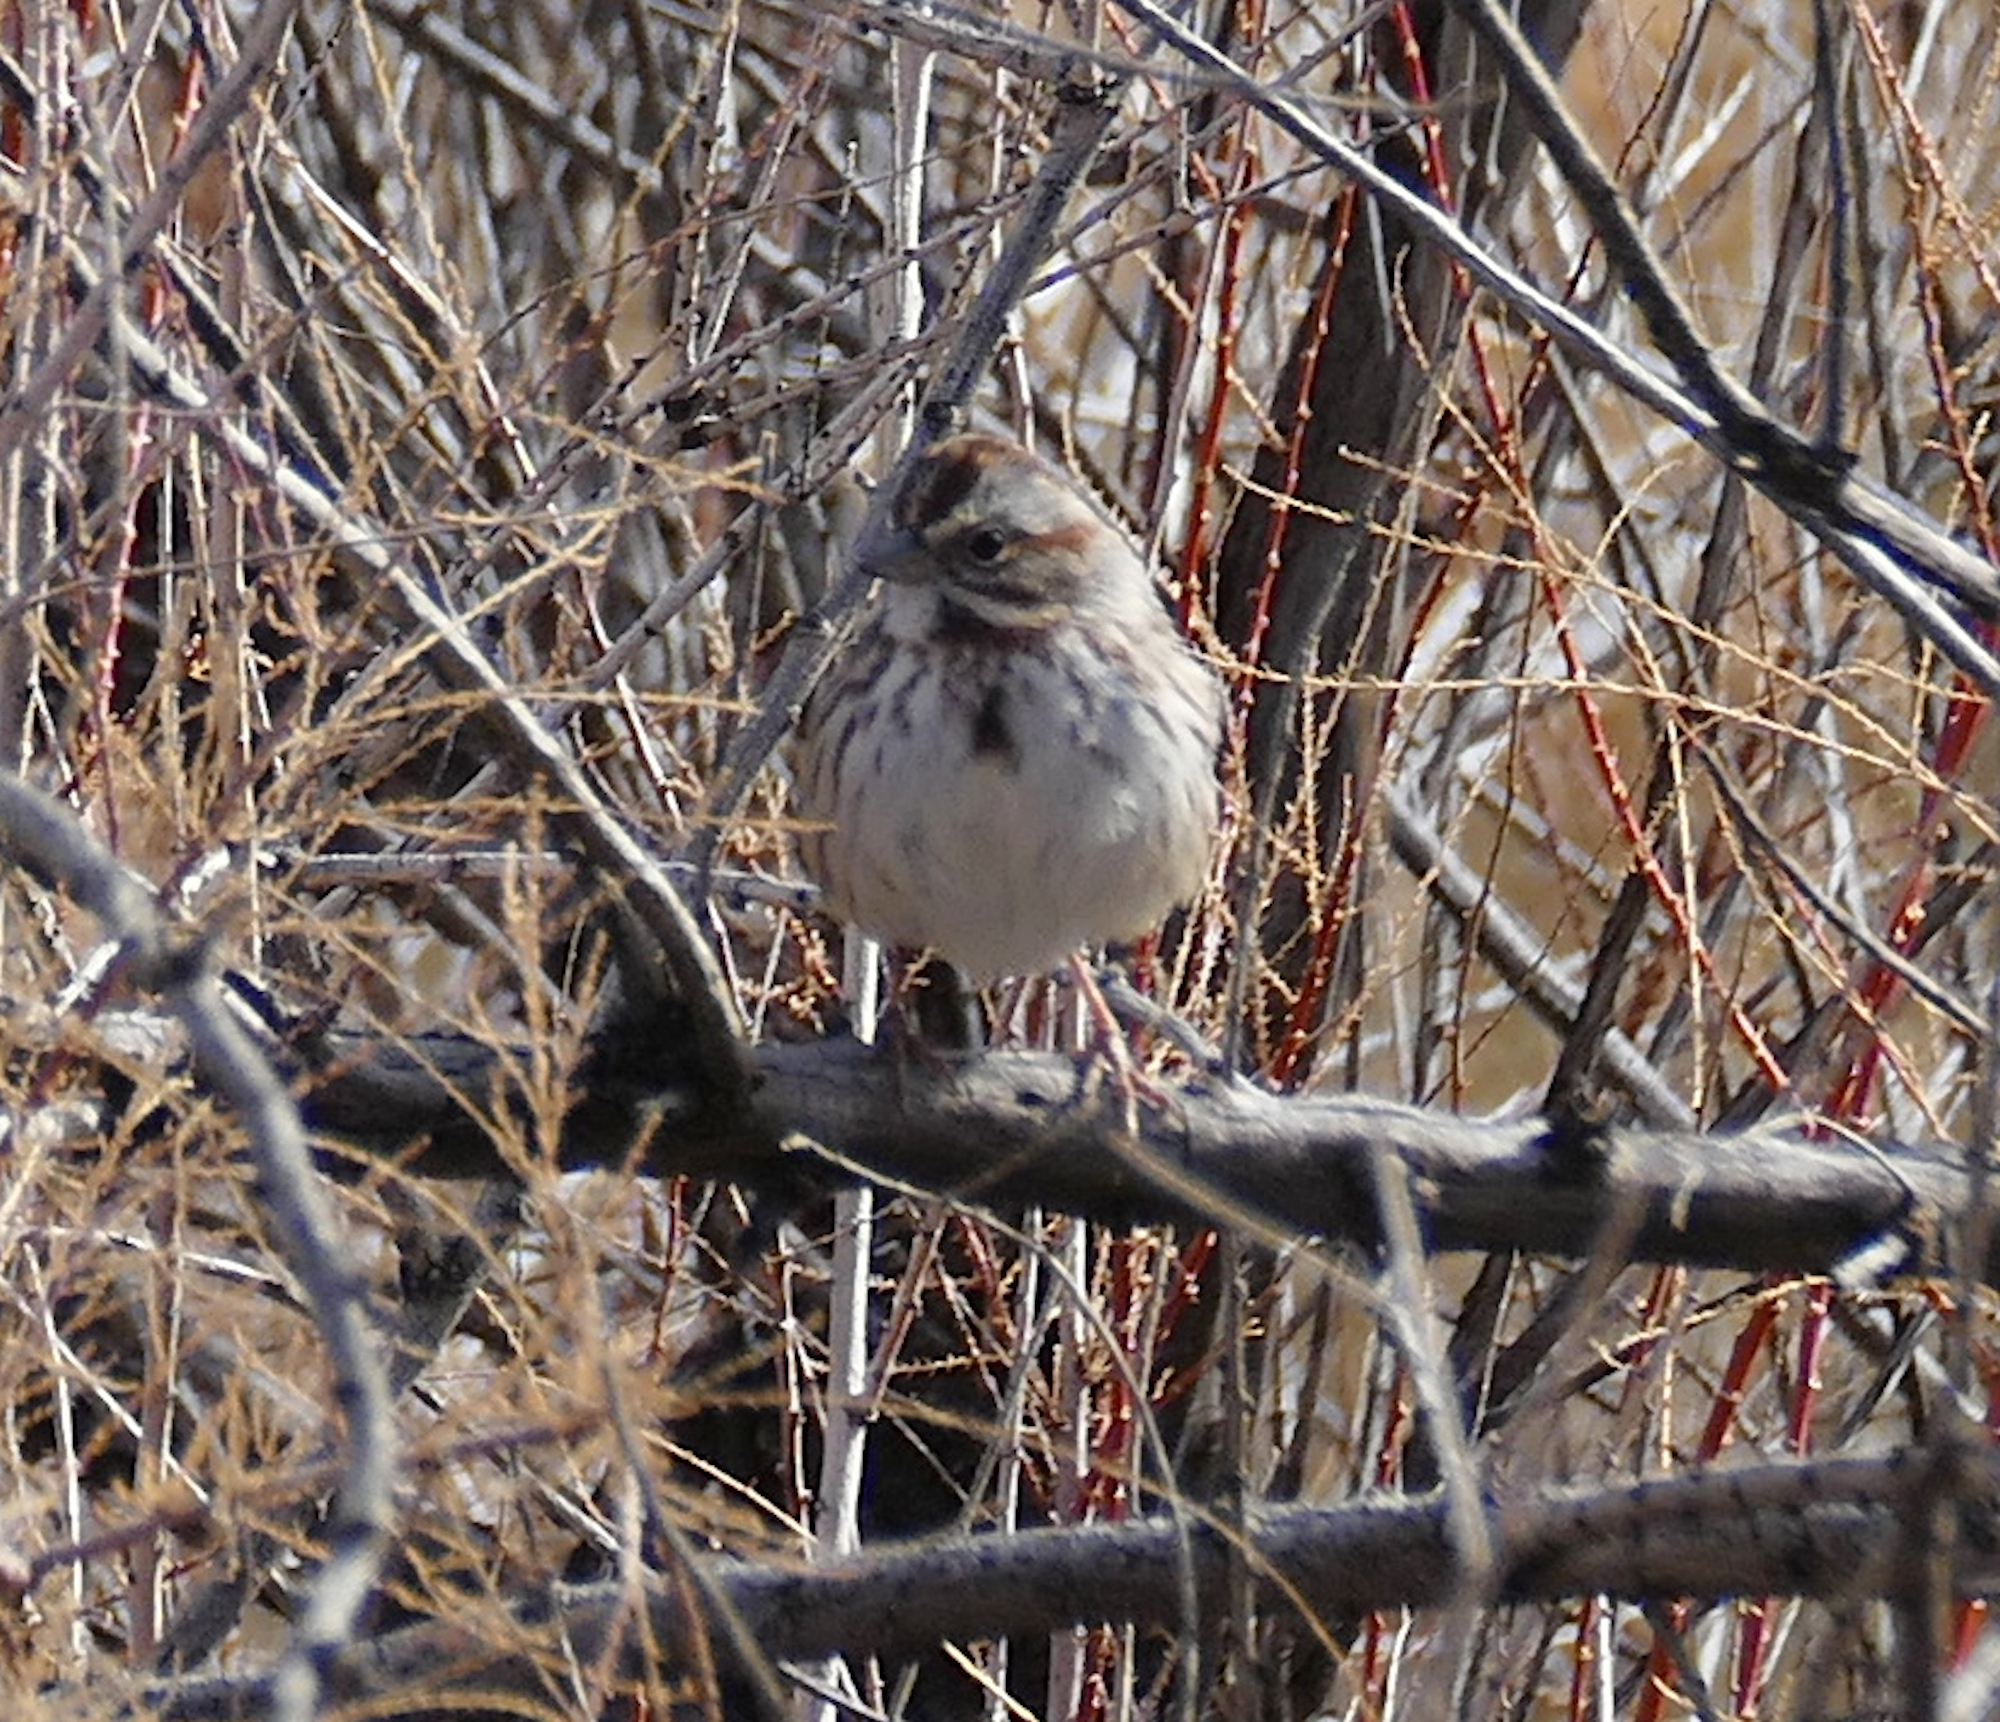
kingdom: Animalia
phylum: Chordata
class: Aves
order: Passeriformes
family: Passerellidae
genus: Melospiza
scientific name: Melospiza melodia
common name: Song sparrow
